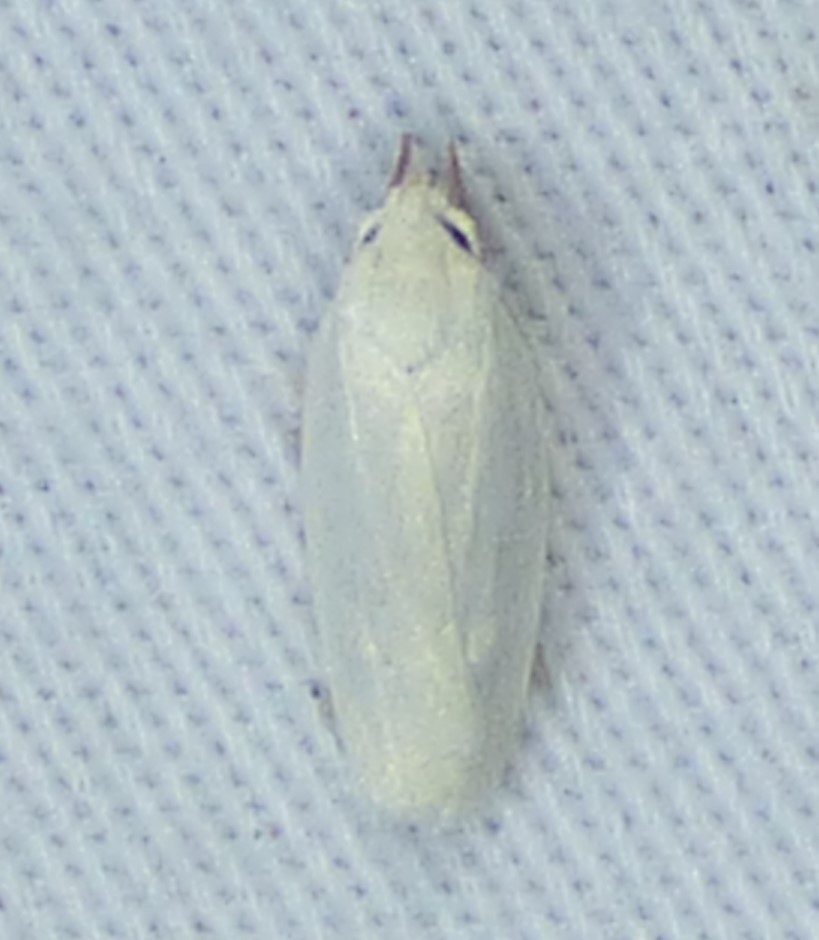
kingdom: Animalia
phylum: Arthropoda
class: Insecta
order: Lepidoptera
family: Depressariidae
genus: Antaeotricha
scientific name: Antaeotricha albulella
